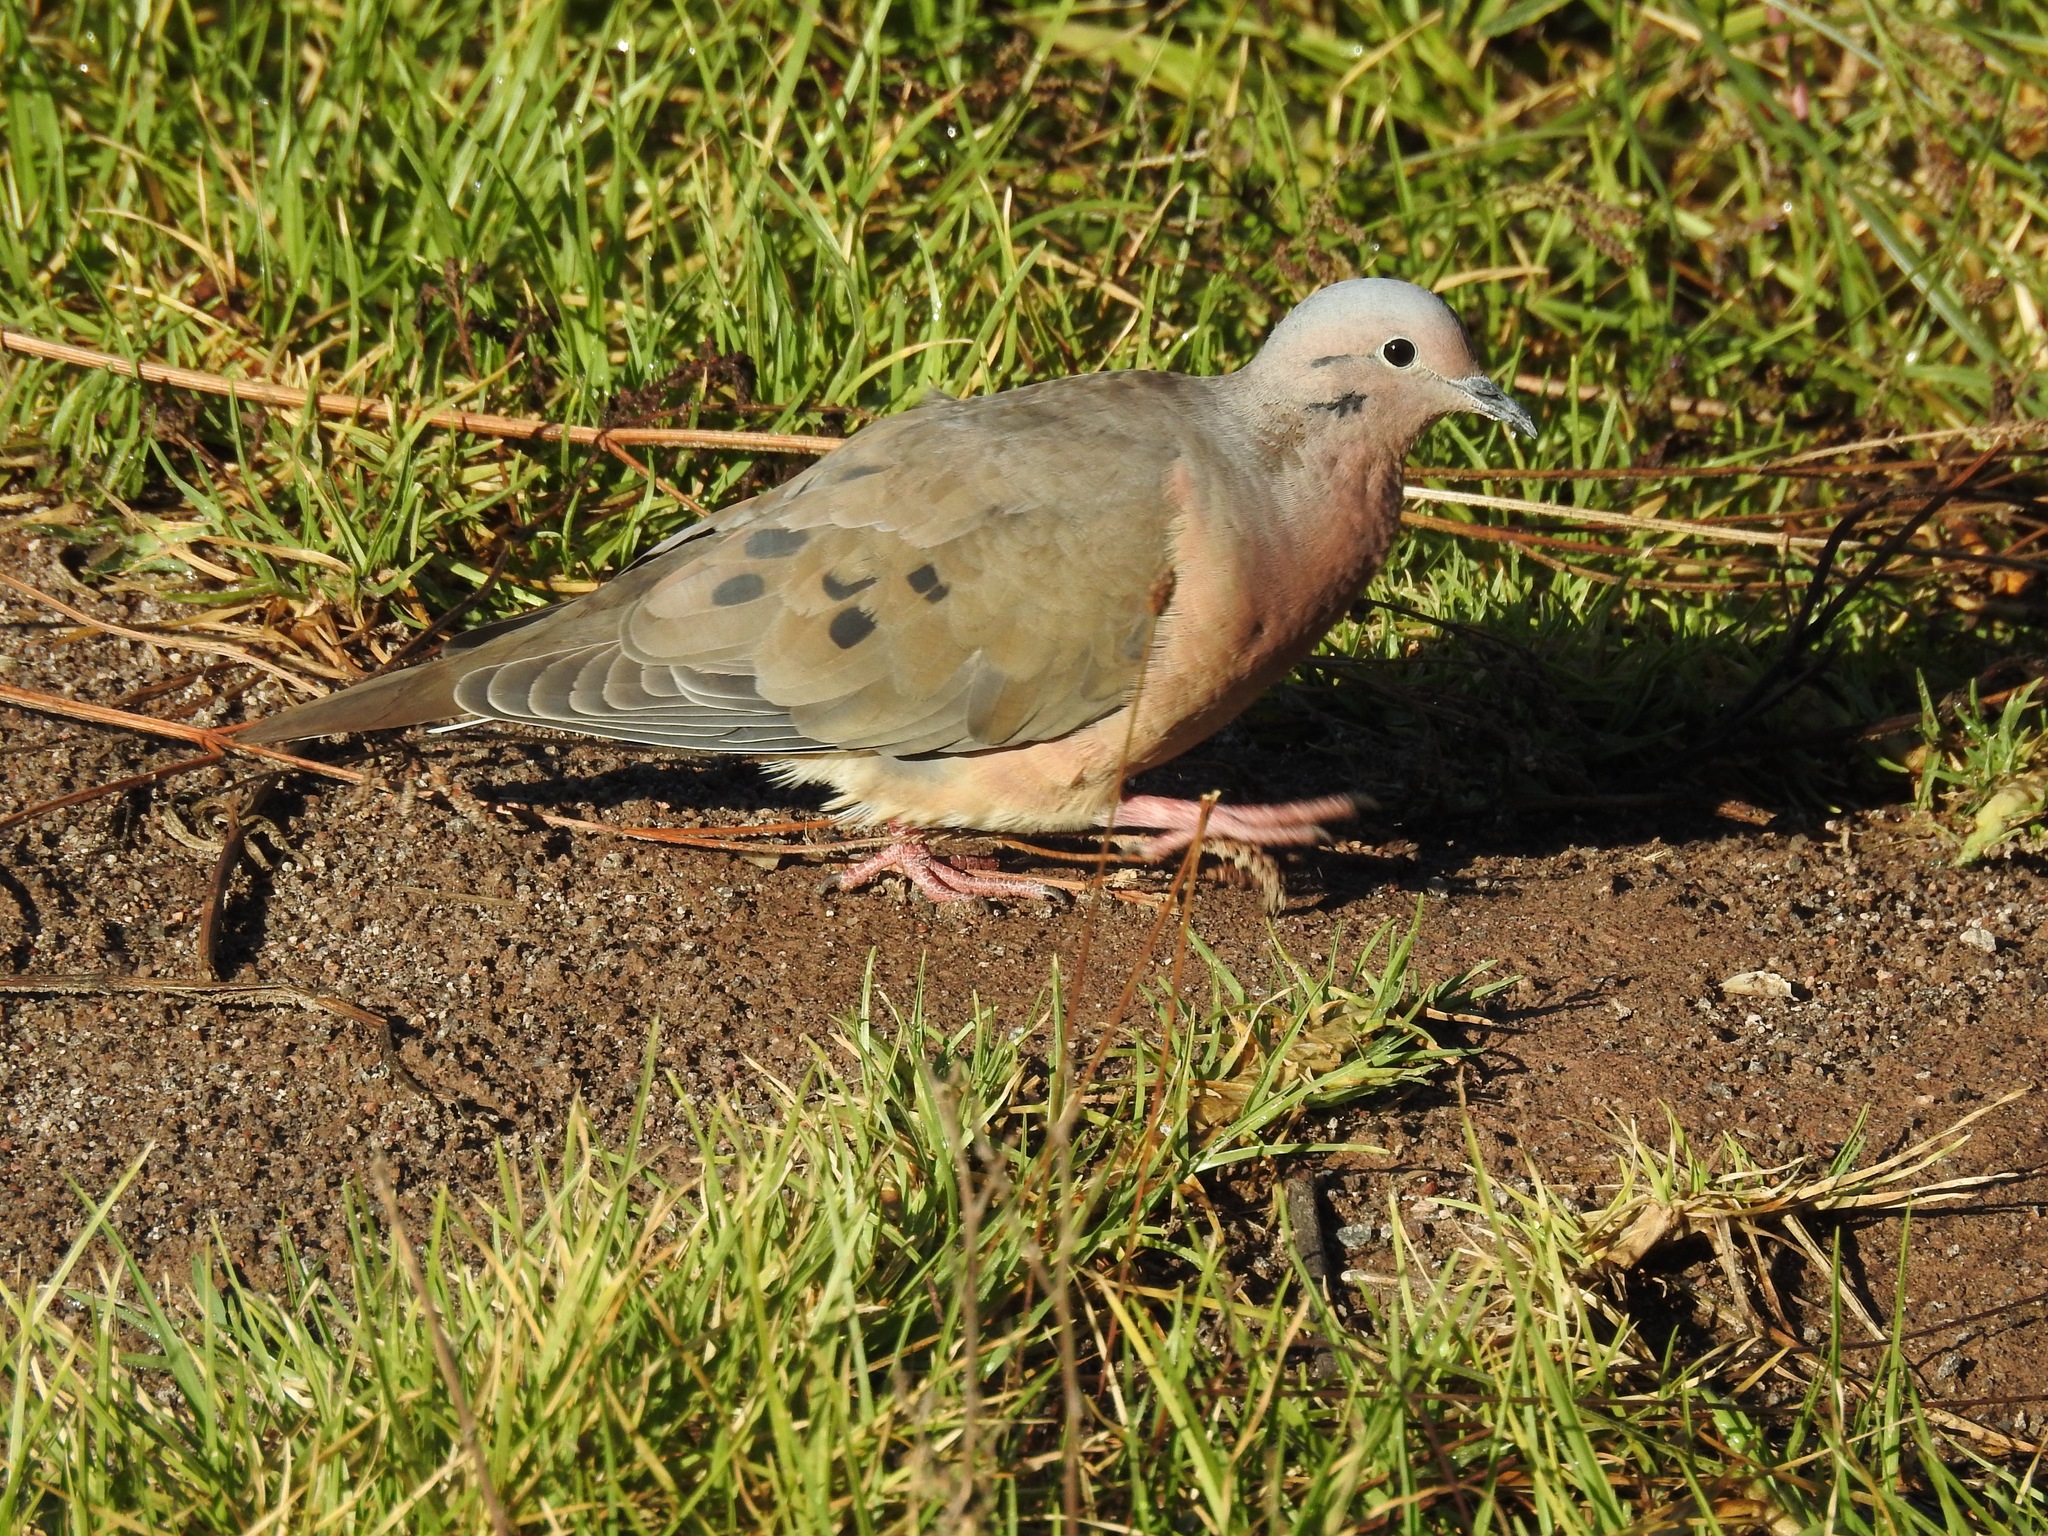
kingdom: Animalia
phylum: Chordata
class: Aves
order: Columbiformes
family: Columbidae
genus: Zenaida
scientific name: Zenaida auriculata
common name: Eared dove
